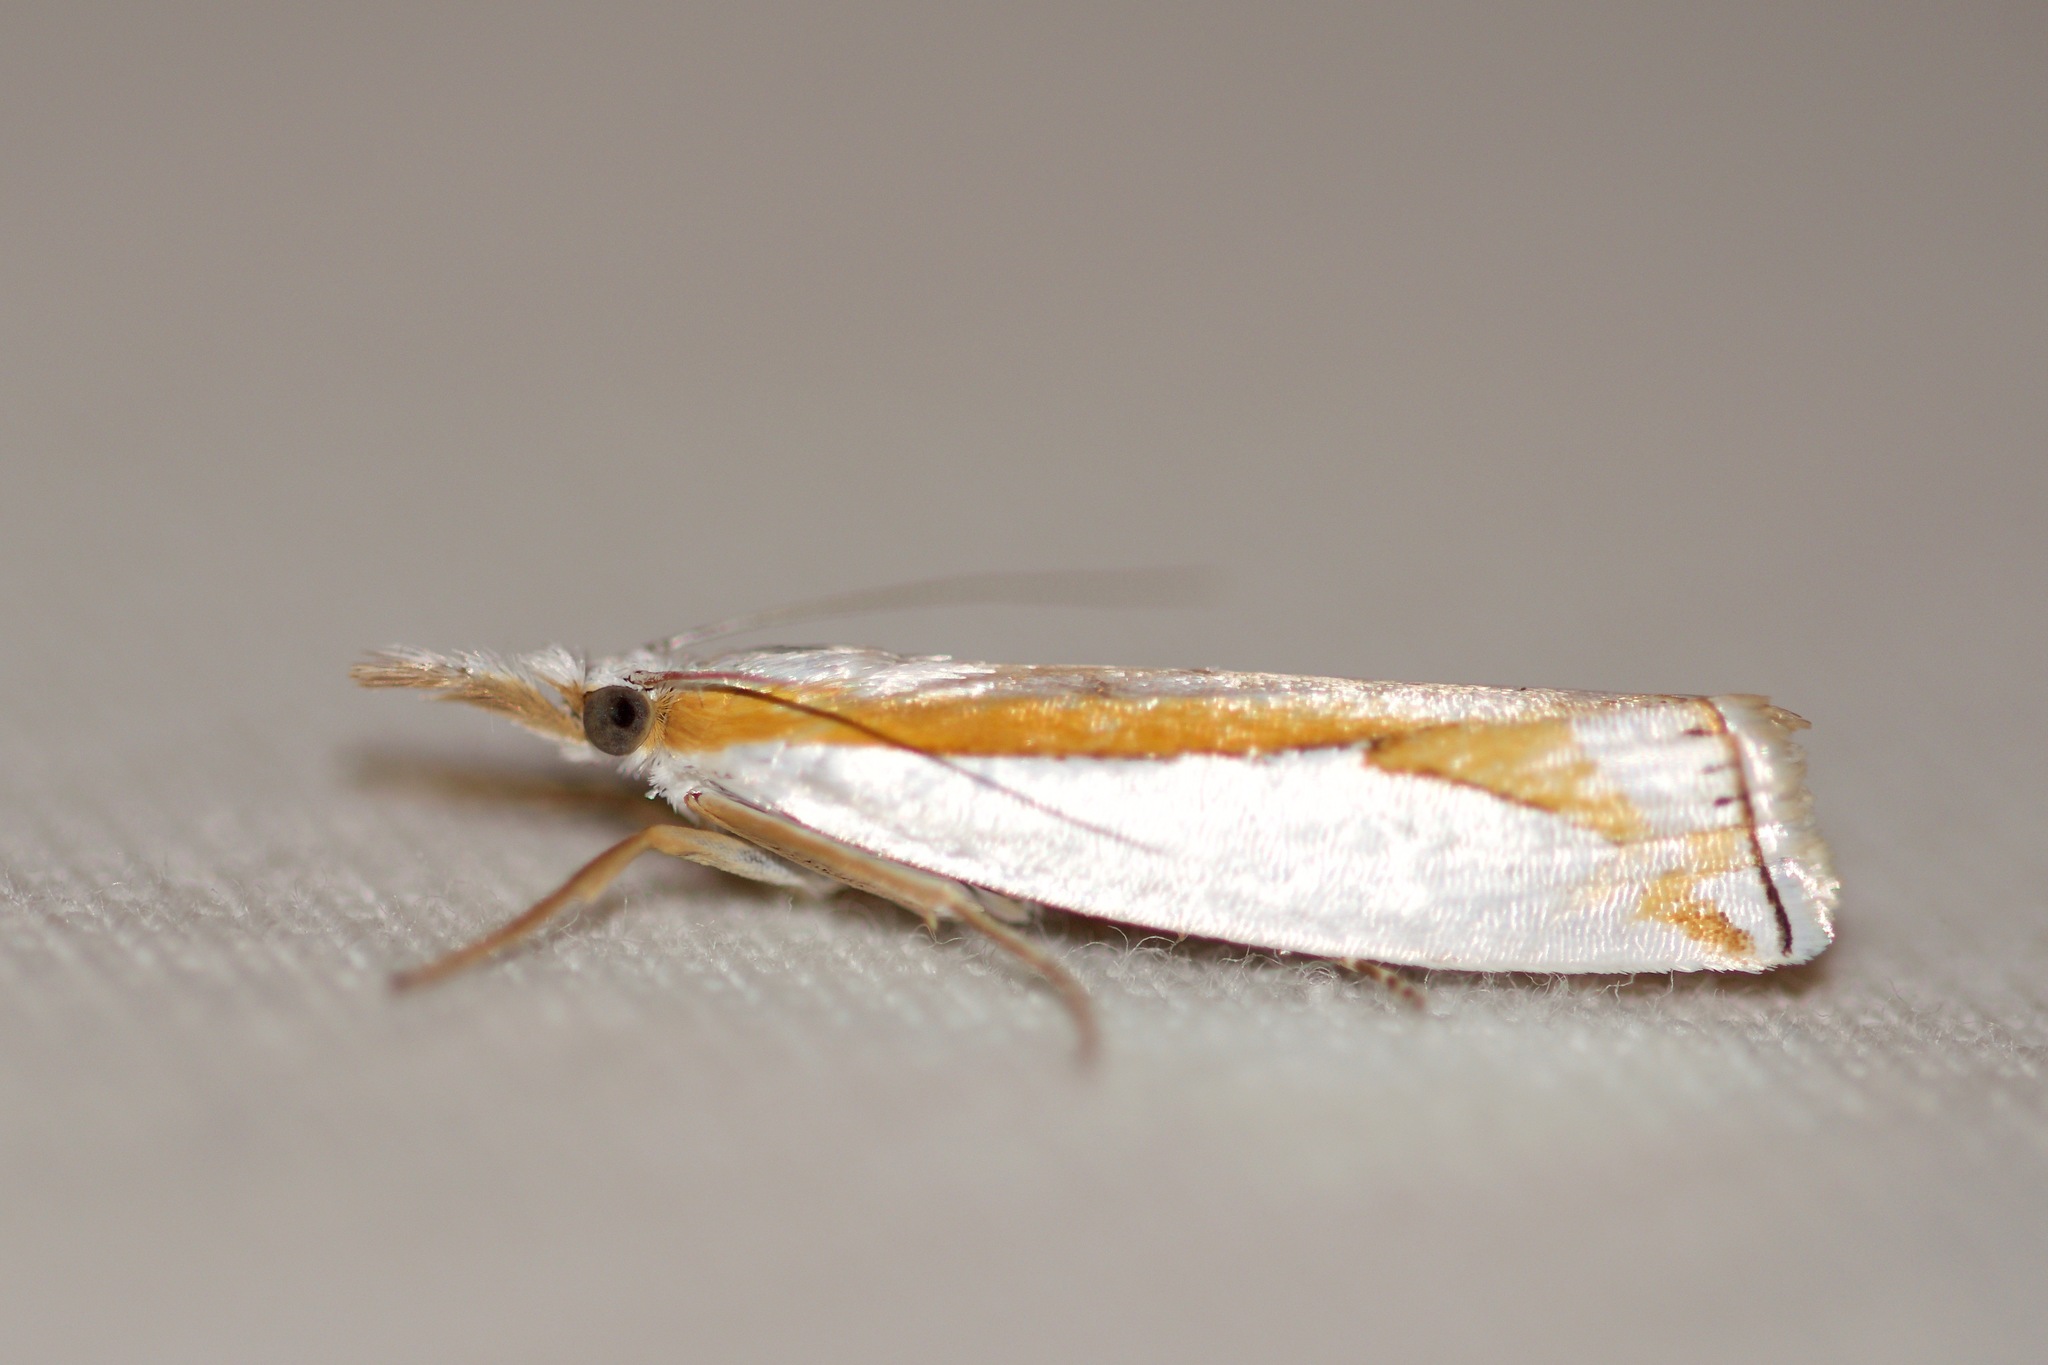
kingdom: Animalia
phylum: Arthropoda
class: Insecta
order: Lepidoptera
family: Crambidae
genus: Crambus
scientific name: Crambus girardellus
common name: Girard's grass-veneer
